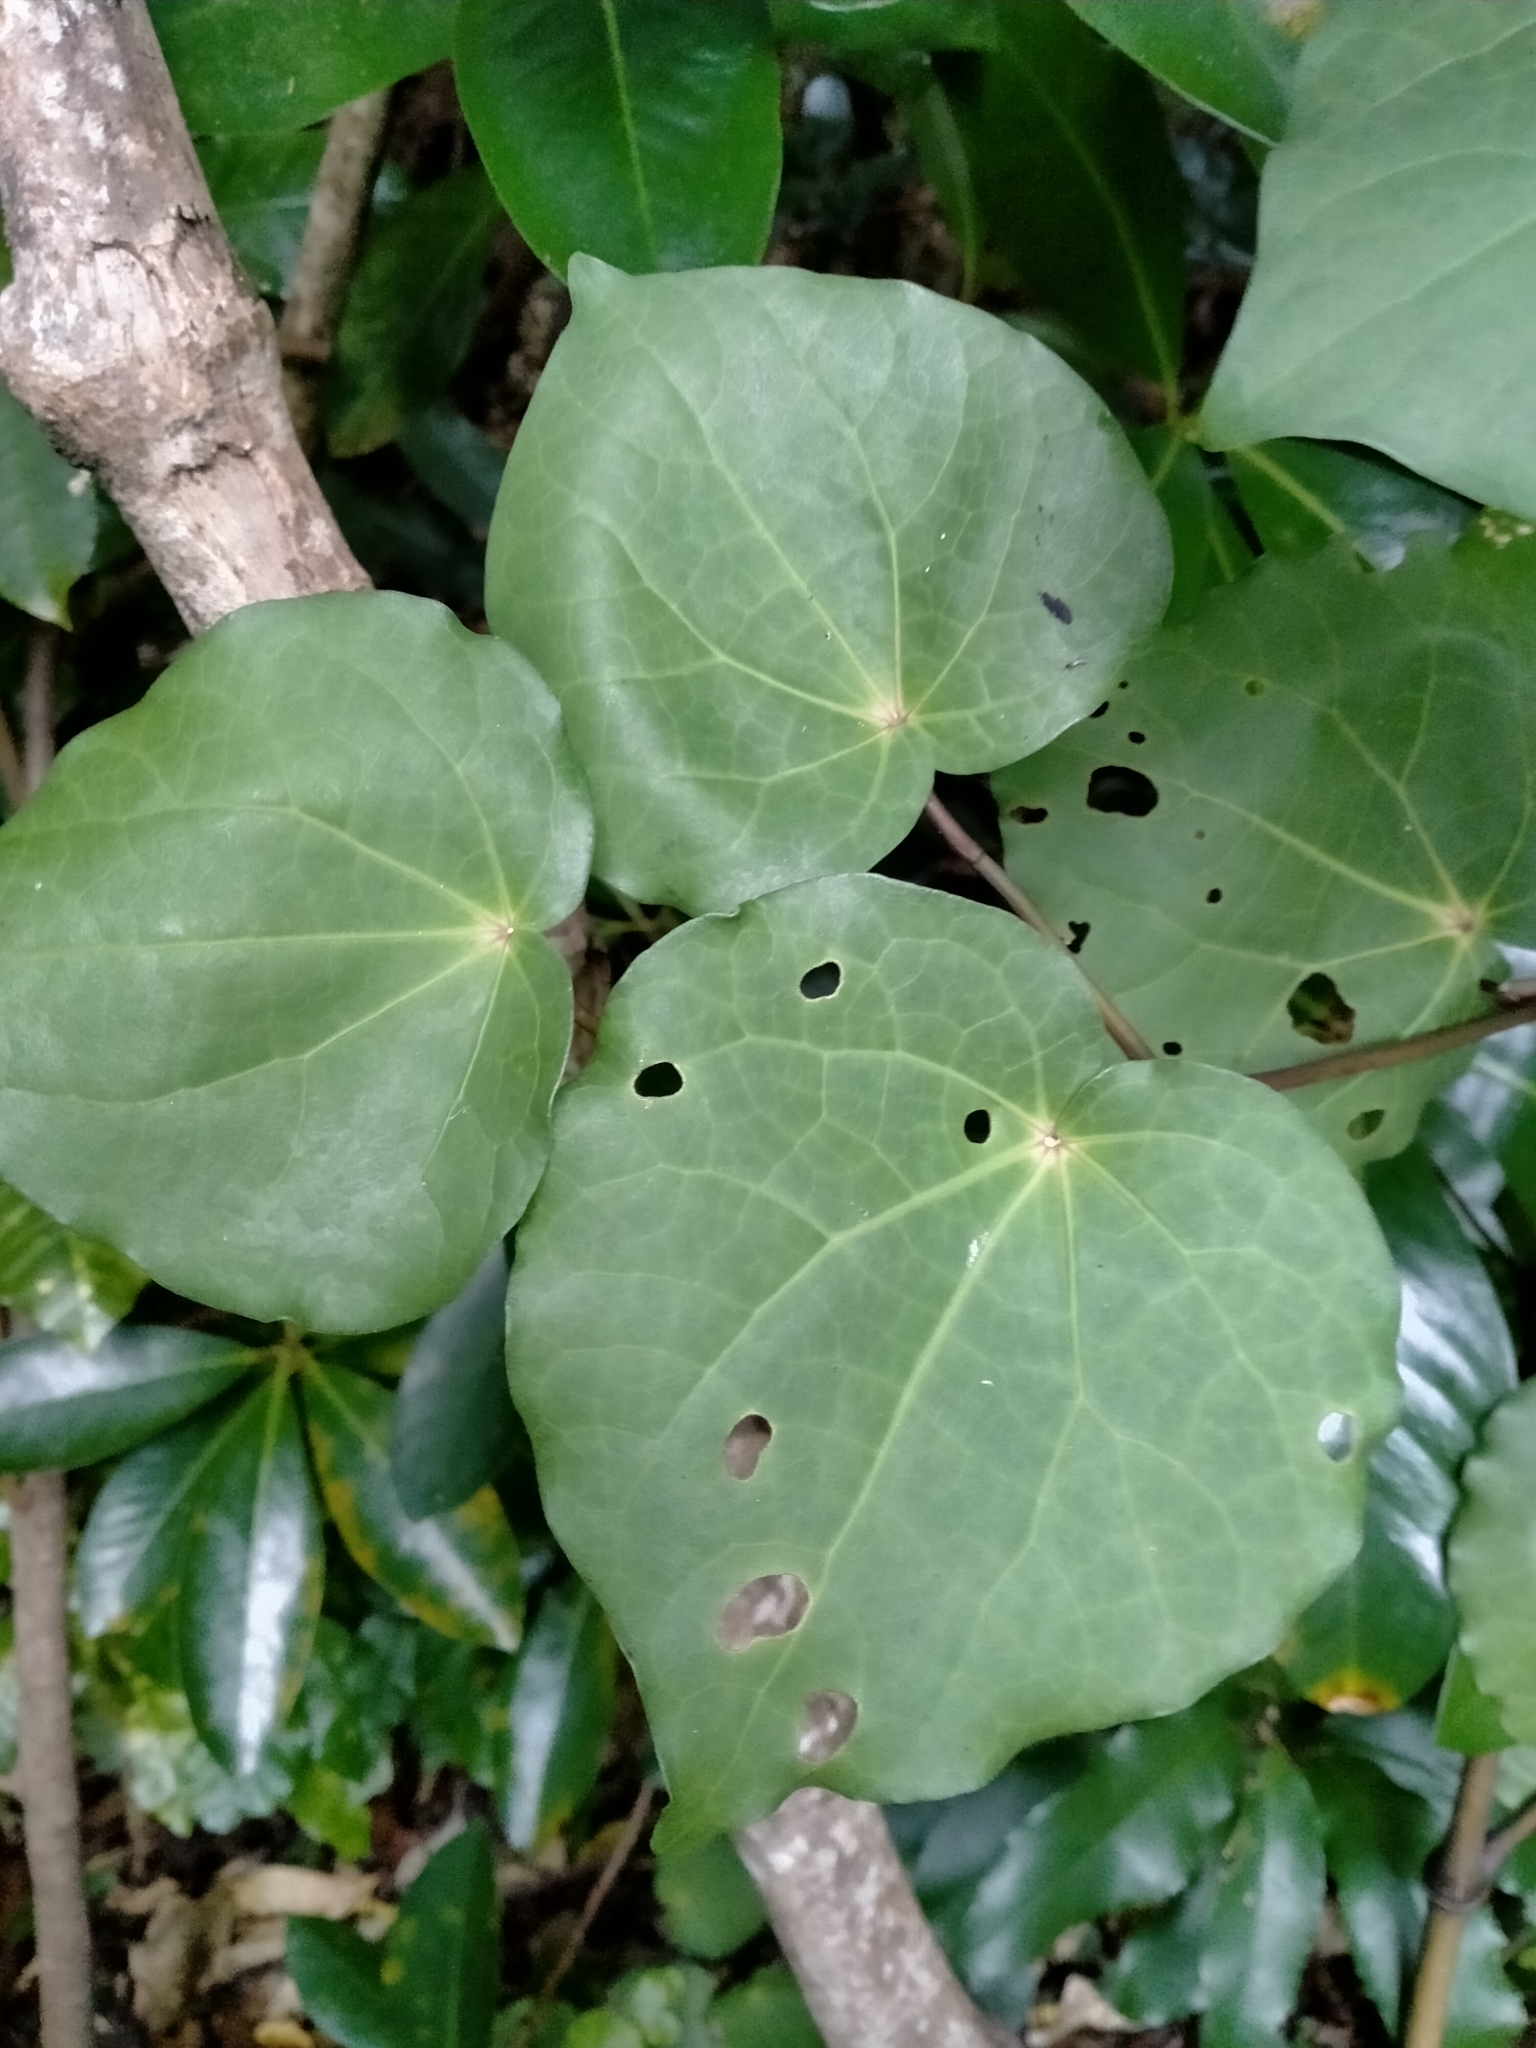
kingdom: Plantae
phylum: Tracheophyta
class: Magnoliopsida
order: Piperales
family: Piperaceae
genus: Macropiper
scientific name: Macropiper excelsum
